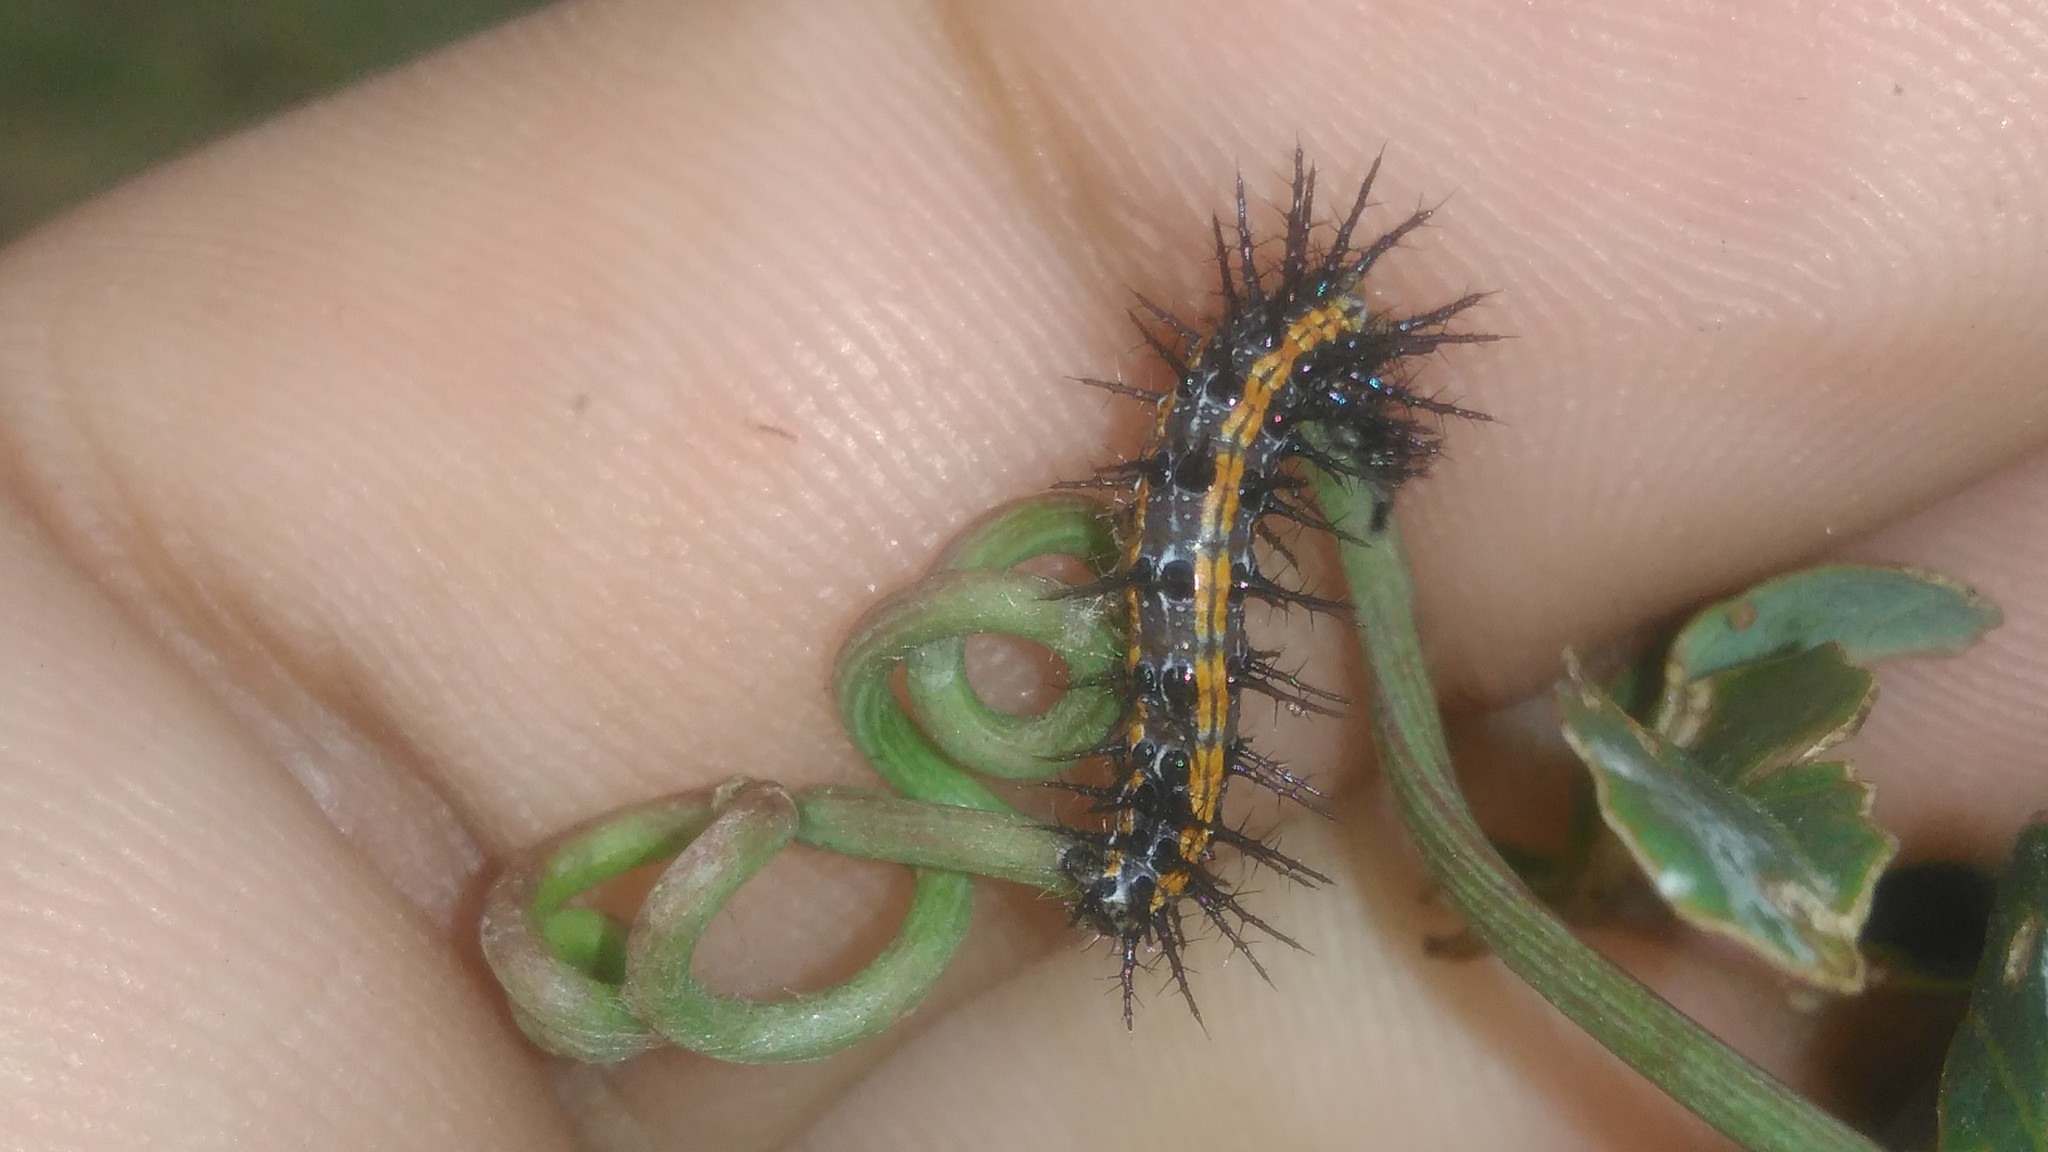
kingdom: Animalia
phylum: Arthropoda
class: Insecta
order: Lepidoptera
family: Nymphalidae
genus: Dione
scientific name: Dione vanillae
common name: Gulf fritillary
